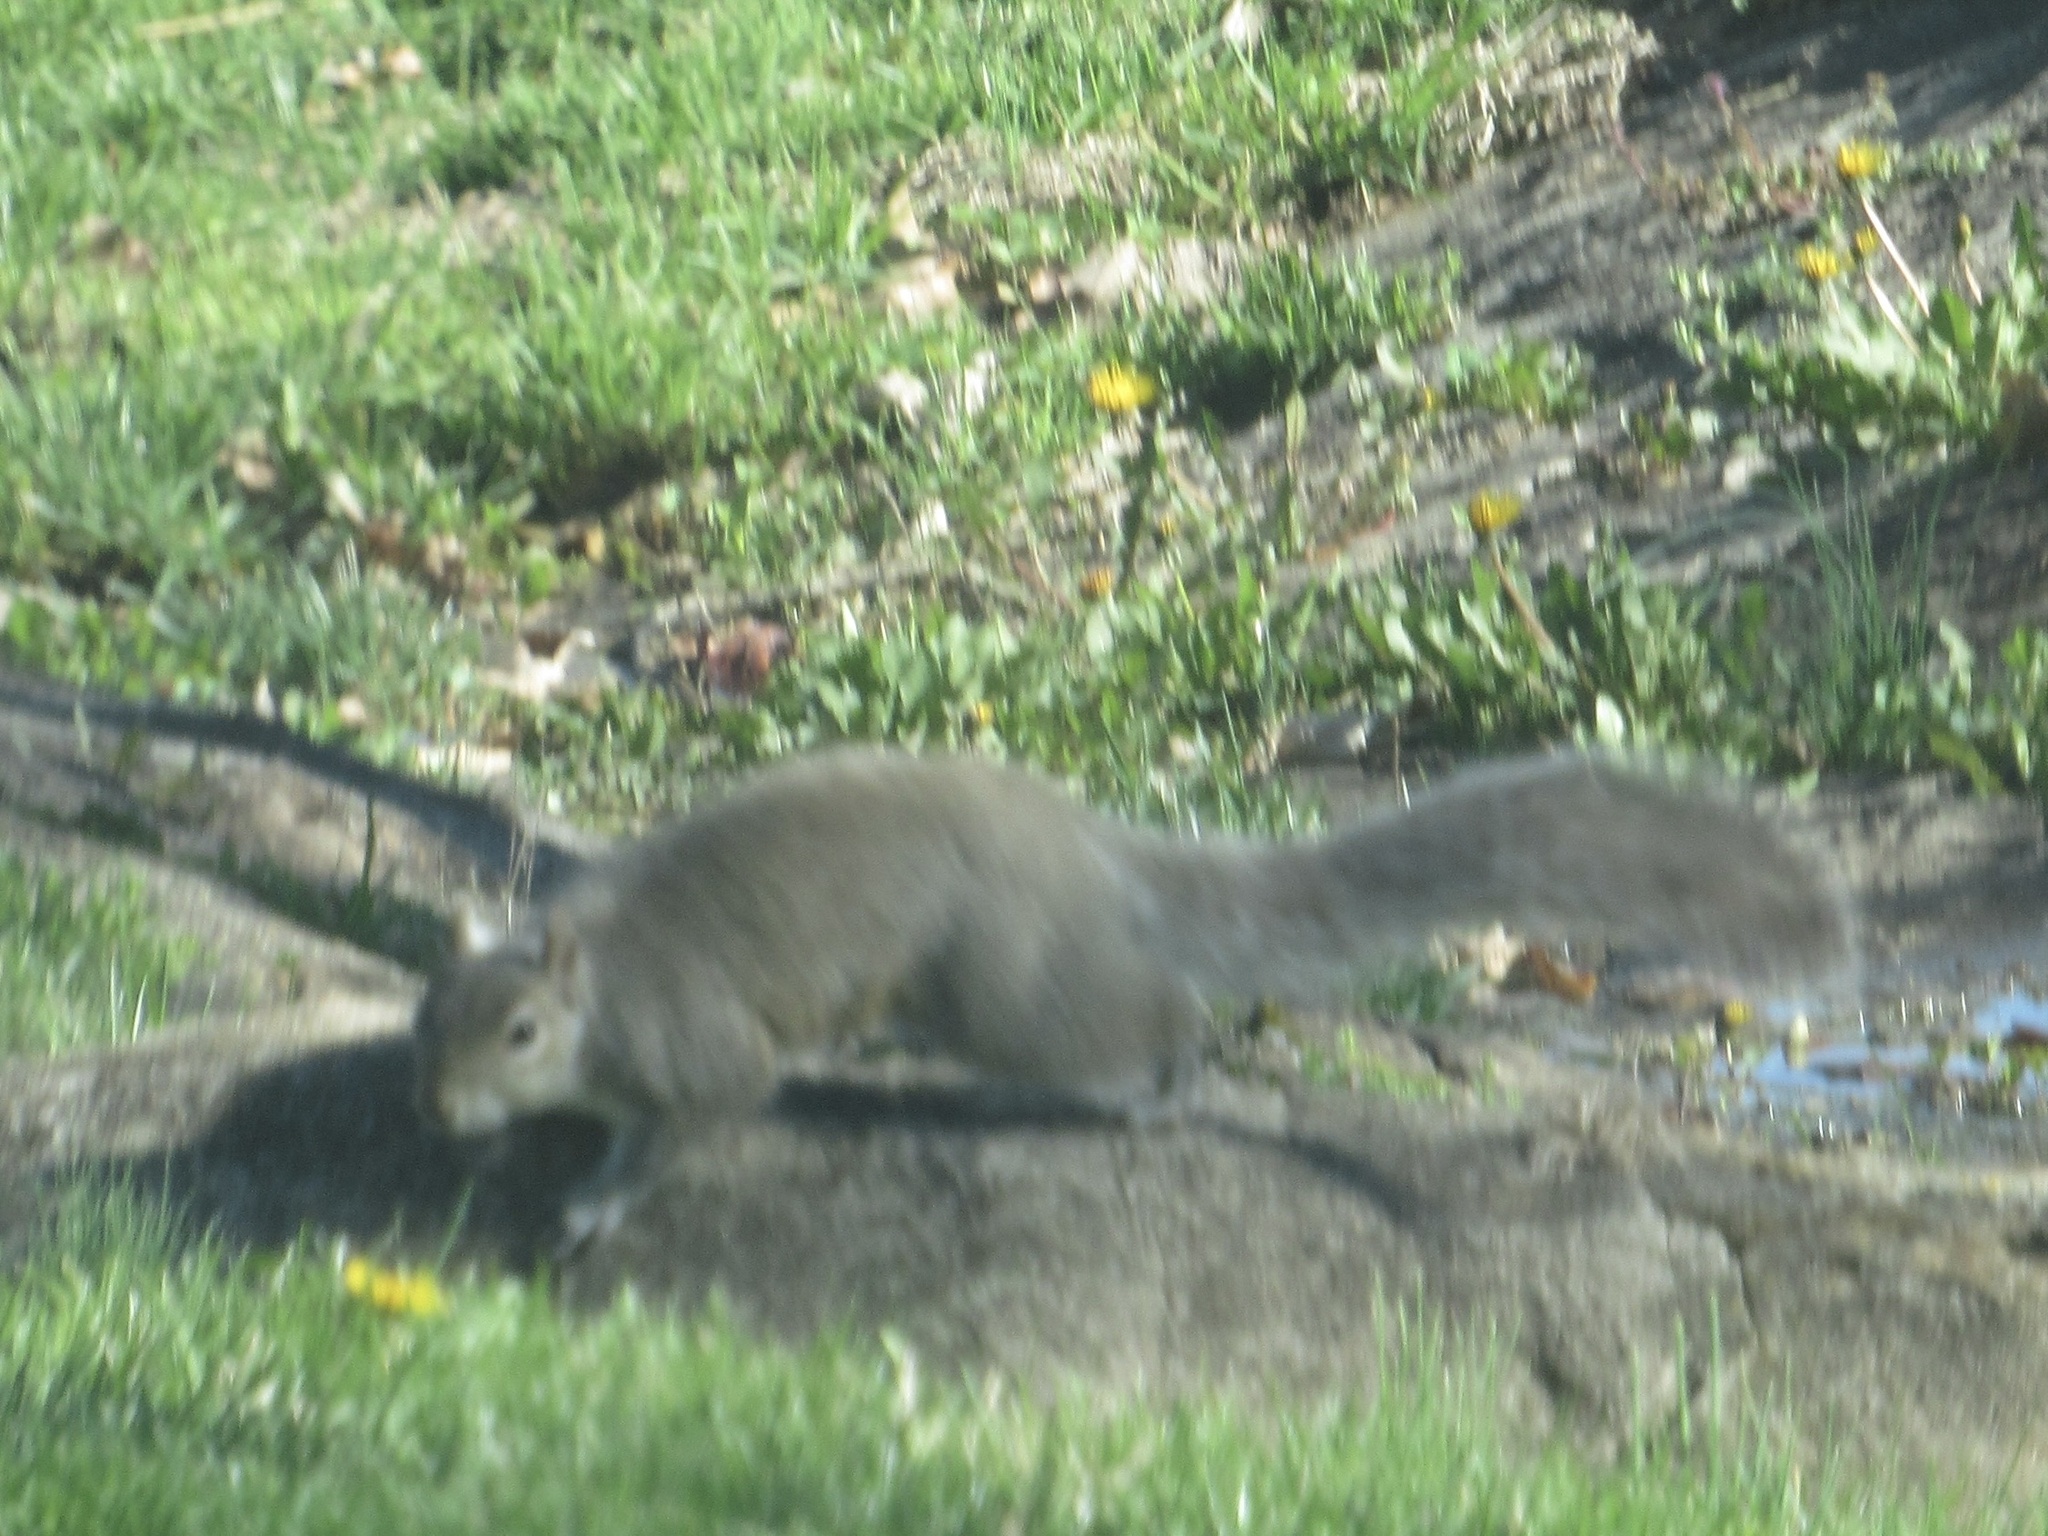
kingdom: Animalia
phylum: Chordata
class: Mammalia
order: Rodentia
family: Sciuridae
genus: Sciurus
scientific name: Sciurus carolinensis
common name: Eastern gray squirrel
